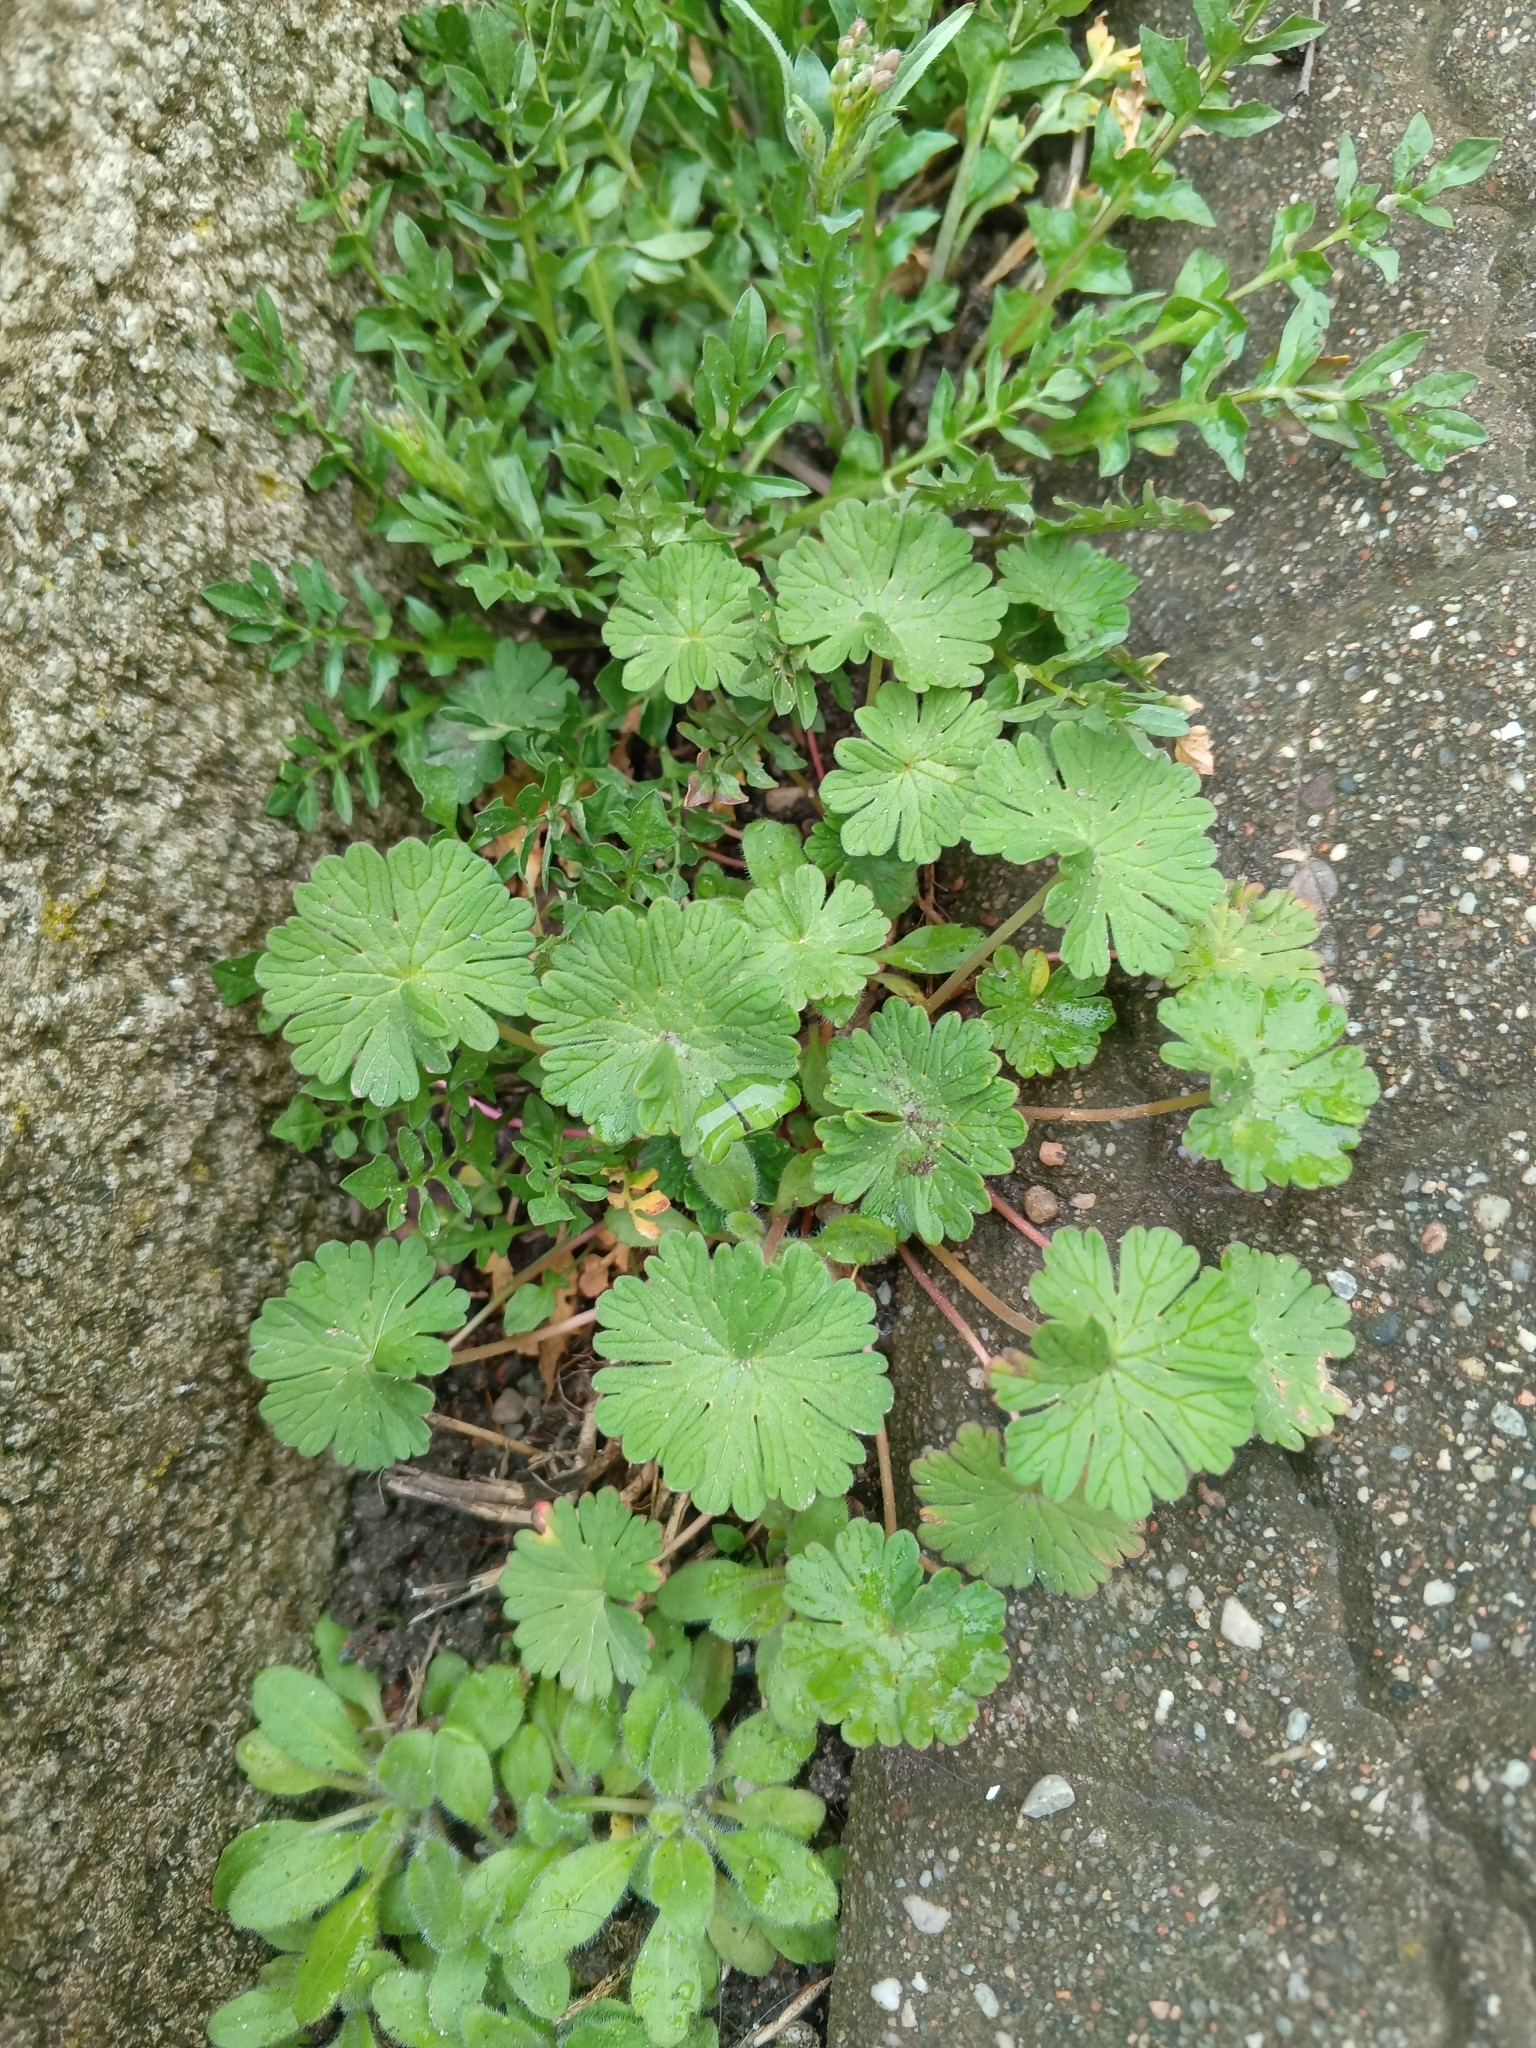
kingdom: Plantae
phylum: Tracheophyta
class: Magnoliopsida
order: Geraniales
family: Geraniaceae
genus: Geranium
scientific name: Geranium pusillum
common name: Small geranium
